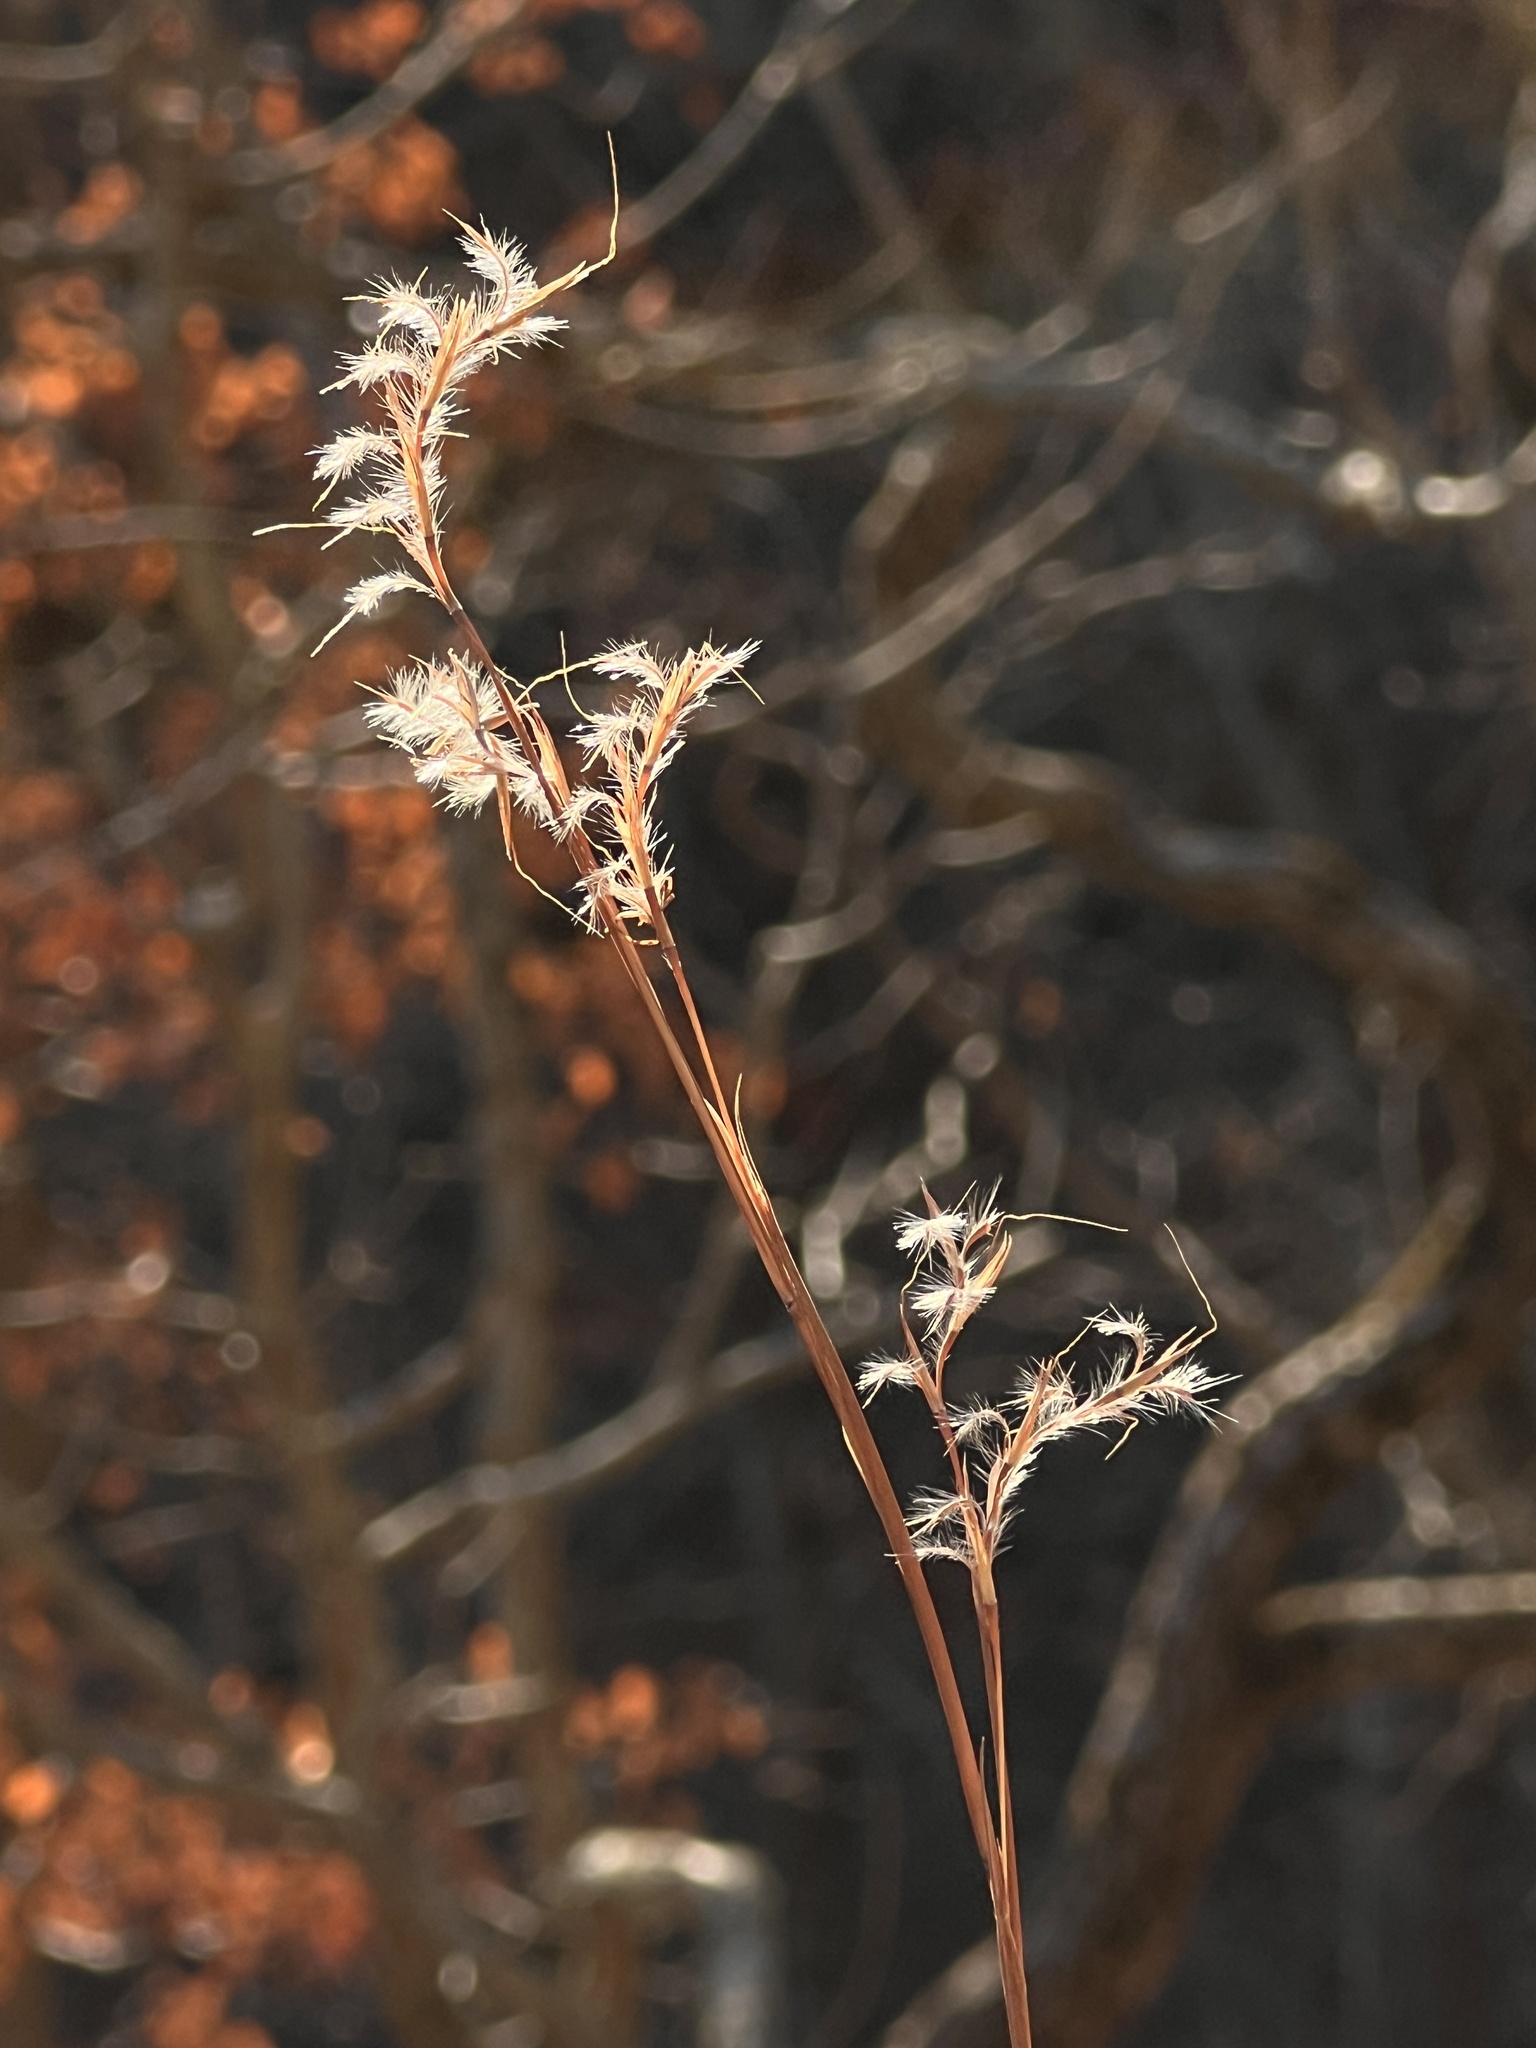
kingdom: Plantae
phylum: Tracheophyta
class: Liliopsida
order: Poales
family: Poaceae
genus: Schizachyrium
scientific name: Schizachyrium scoparium
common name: Little bluestem
